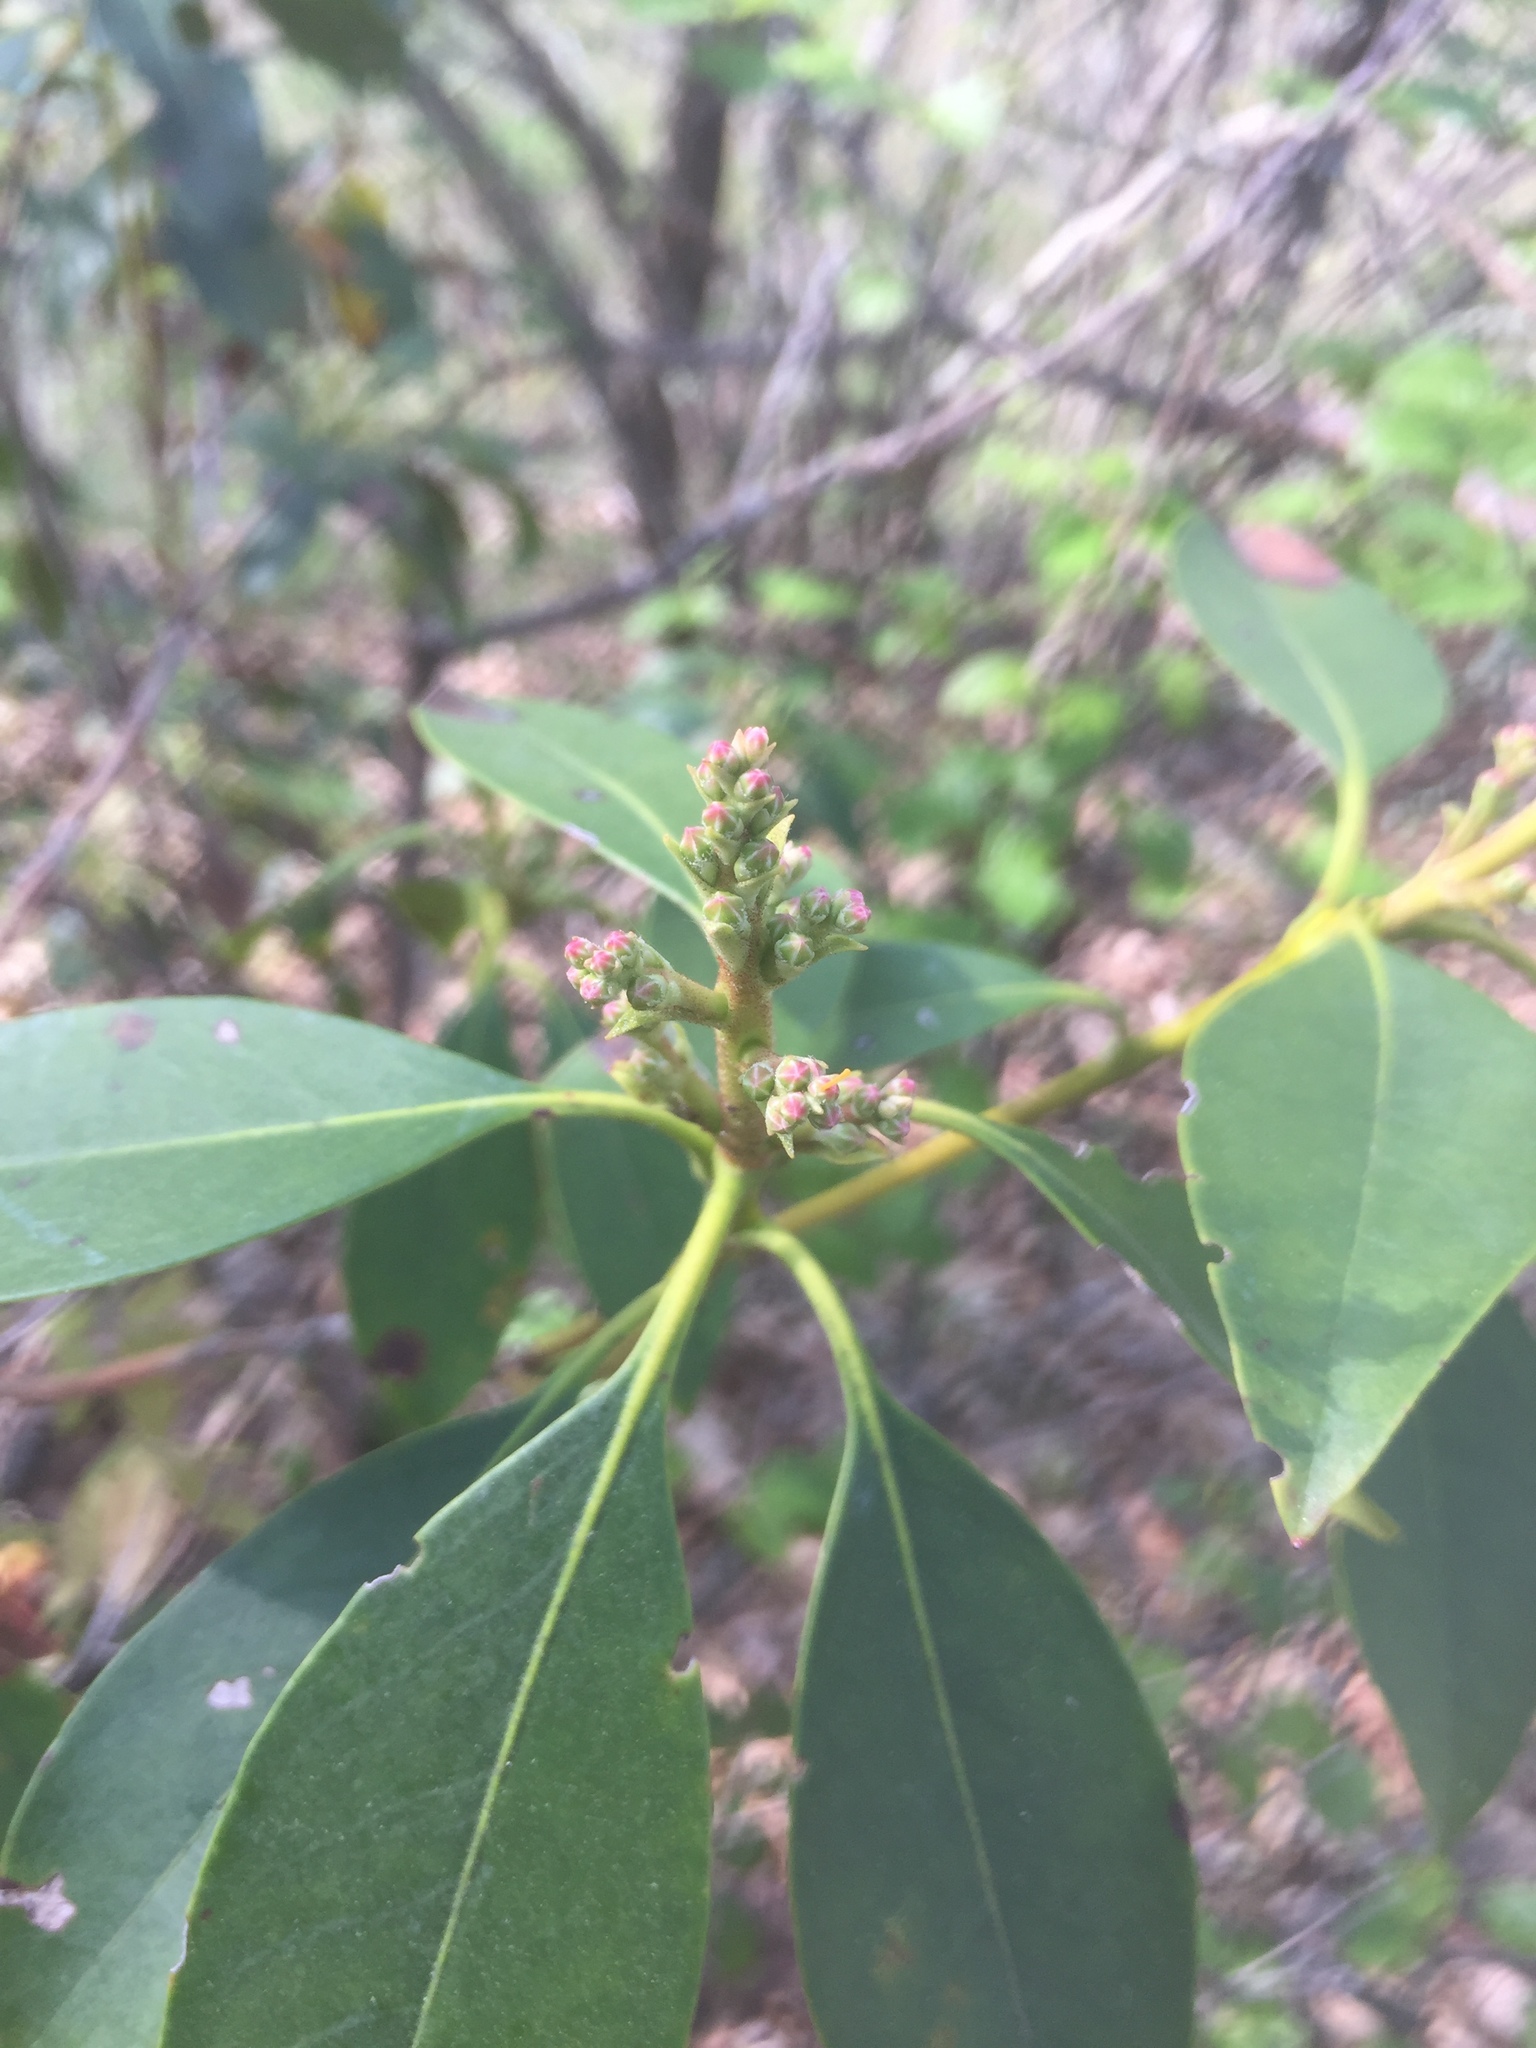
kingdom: Plantae
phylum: Tracheophyta
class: Magnoliopsida
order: Ericales
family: Ericaceae
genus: Kalmia
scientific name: Kalmia latifolia
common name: Mountain-laurel
